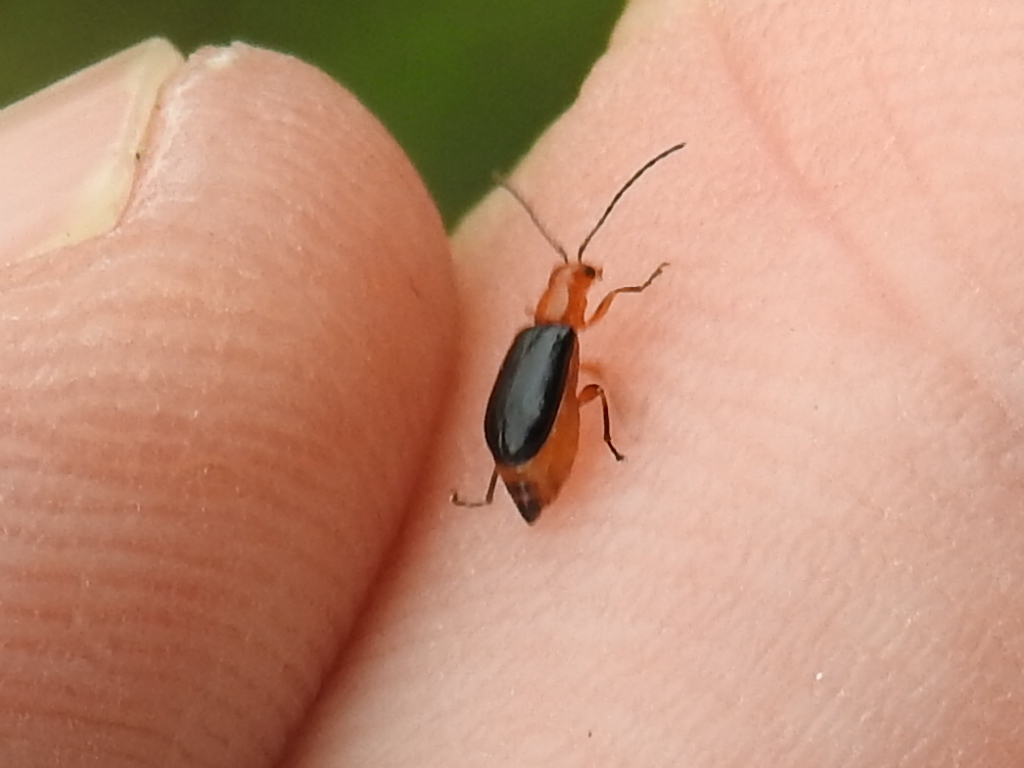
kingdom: Animalia
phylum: Arthropoda
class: Insecta
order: Coleoptera
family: Chrysomelidae
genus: Luperosoma
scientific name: Luperosoma parallelum
